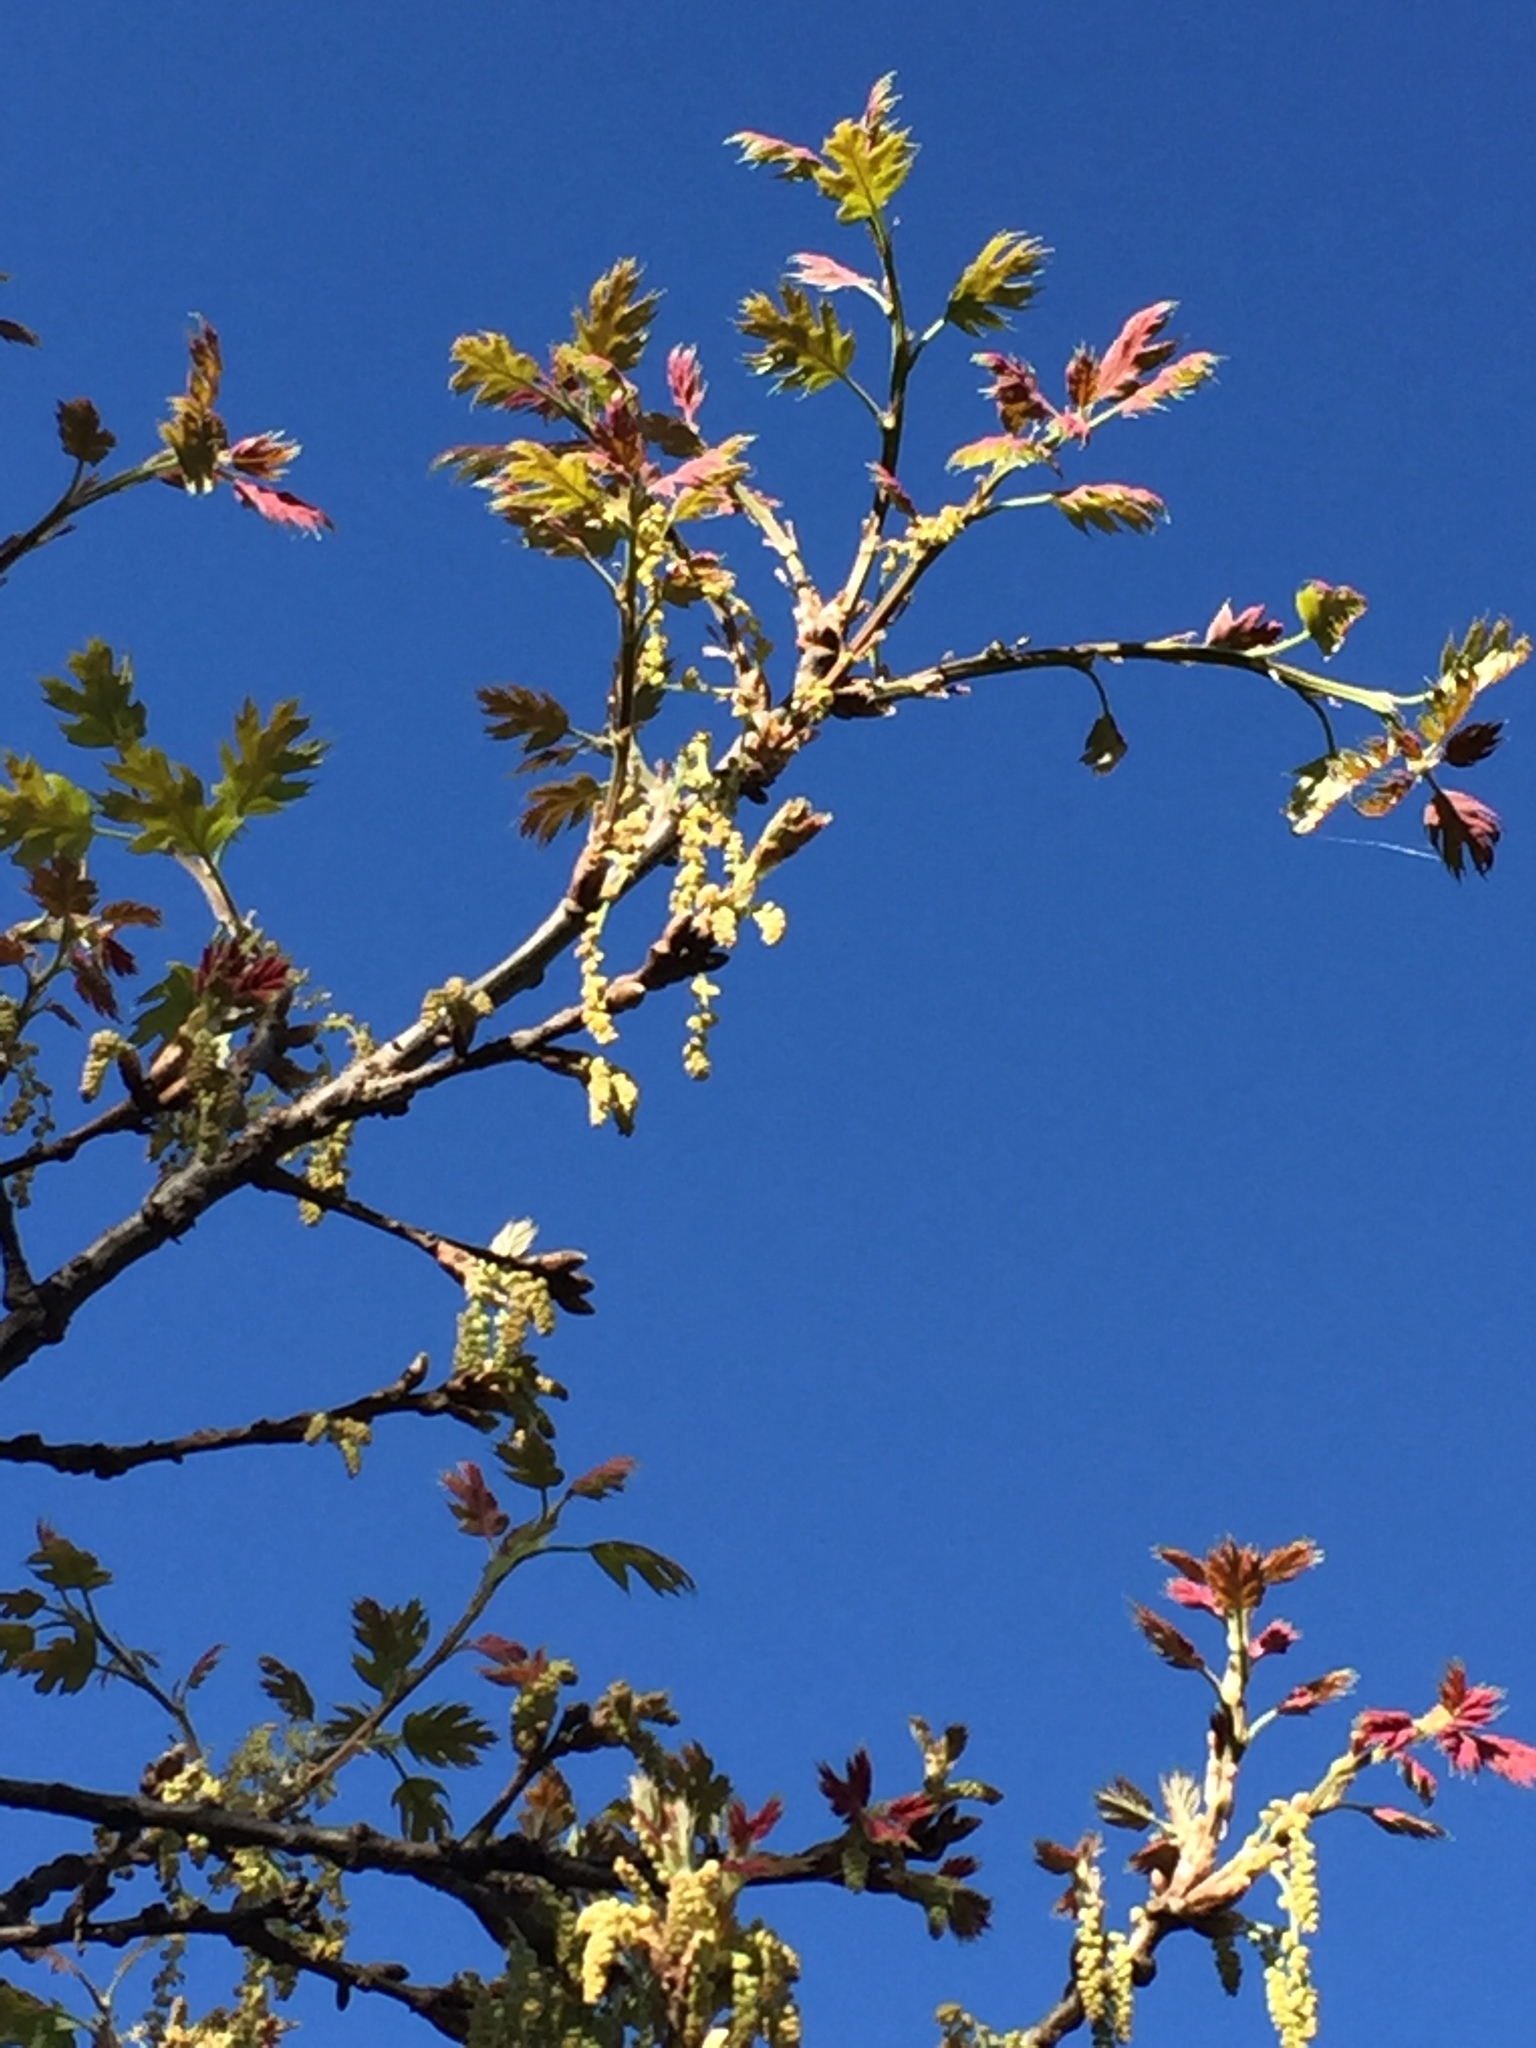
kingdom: Plantae
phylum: Tracheophyta
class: Magnoliopsida
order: Fagales
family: Fagaceae
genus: Quercus
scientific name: Quercus kelloggii
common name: California black oak
